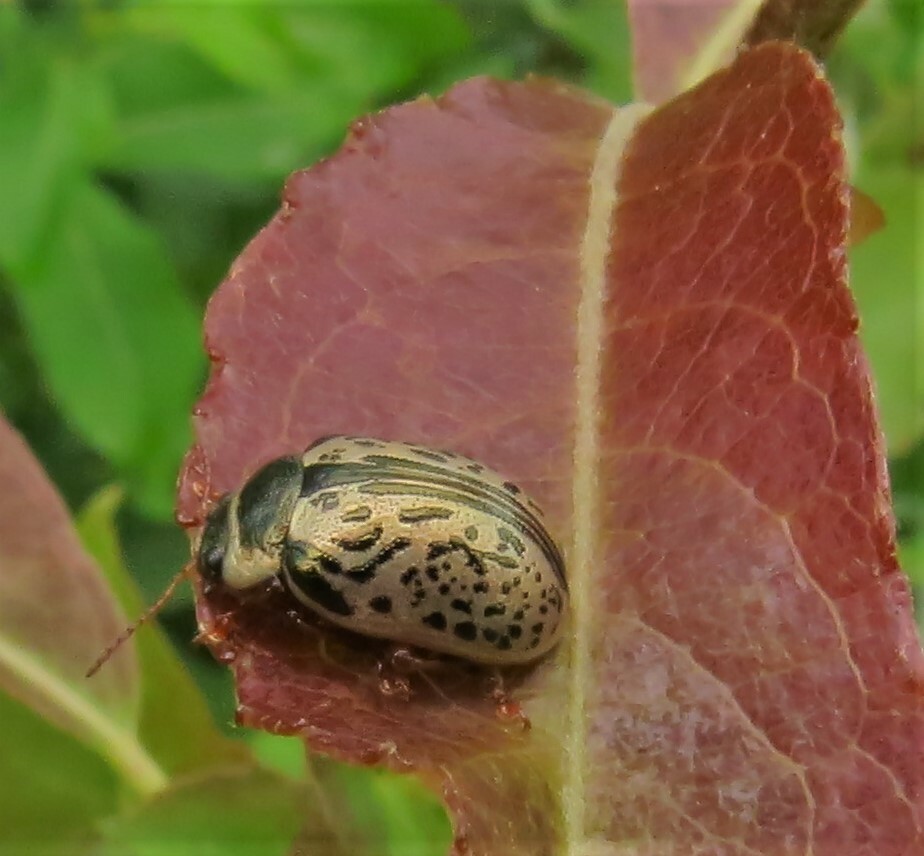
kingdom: Animalia
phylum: Arthropoda
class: Insecta
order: Coleoptera
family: Chrysomelidae
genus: Calligrapha
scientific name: Calligrapha multipunctata
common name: Common willow calligrapher beetle
